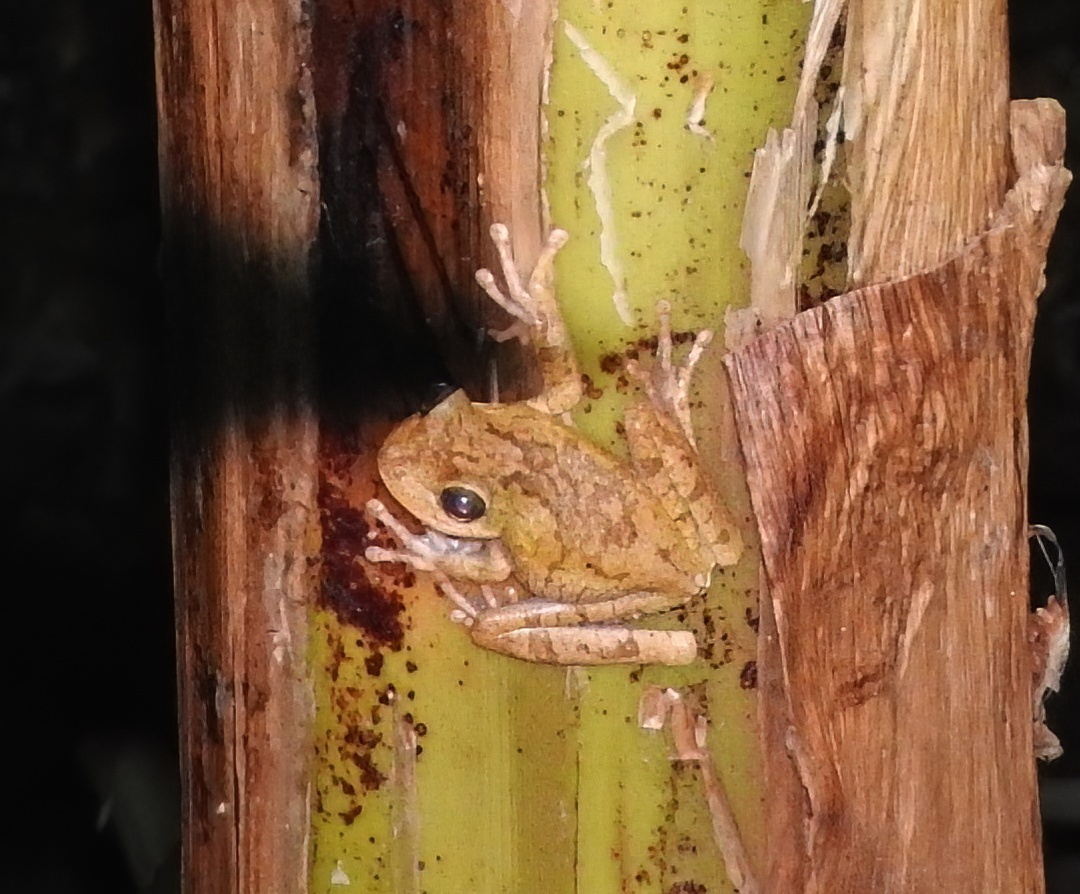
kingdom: Animalia
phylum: Chordata
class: Amphibia
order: Anura
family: Hylidae
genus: Boana
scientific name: Boana platanera
